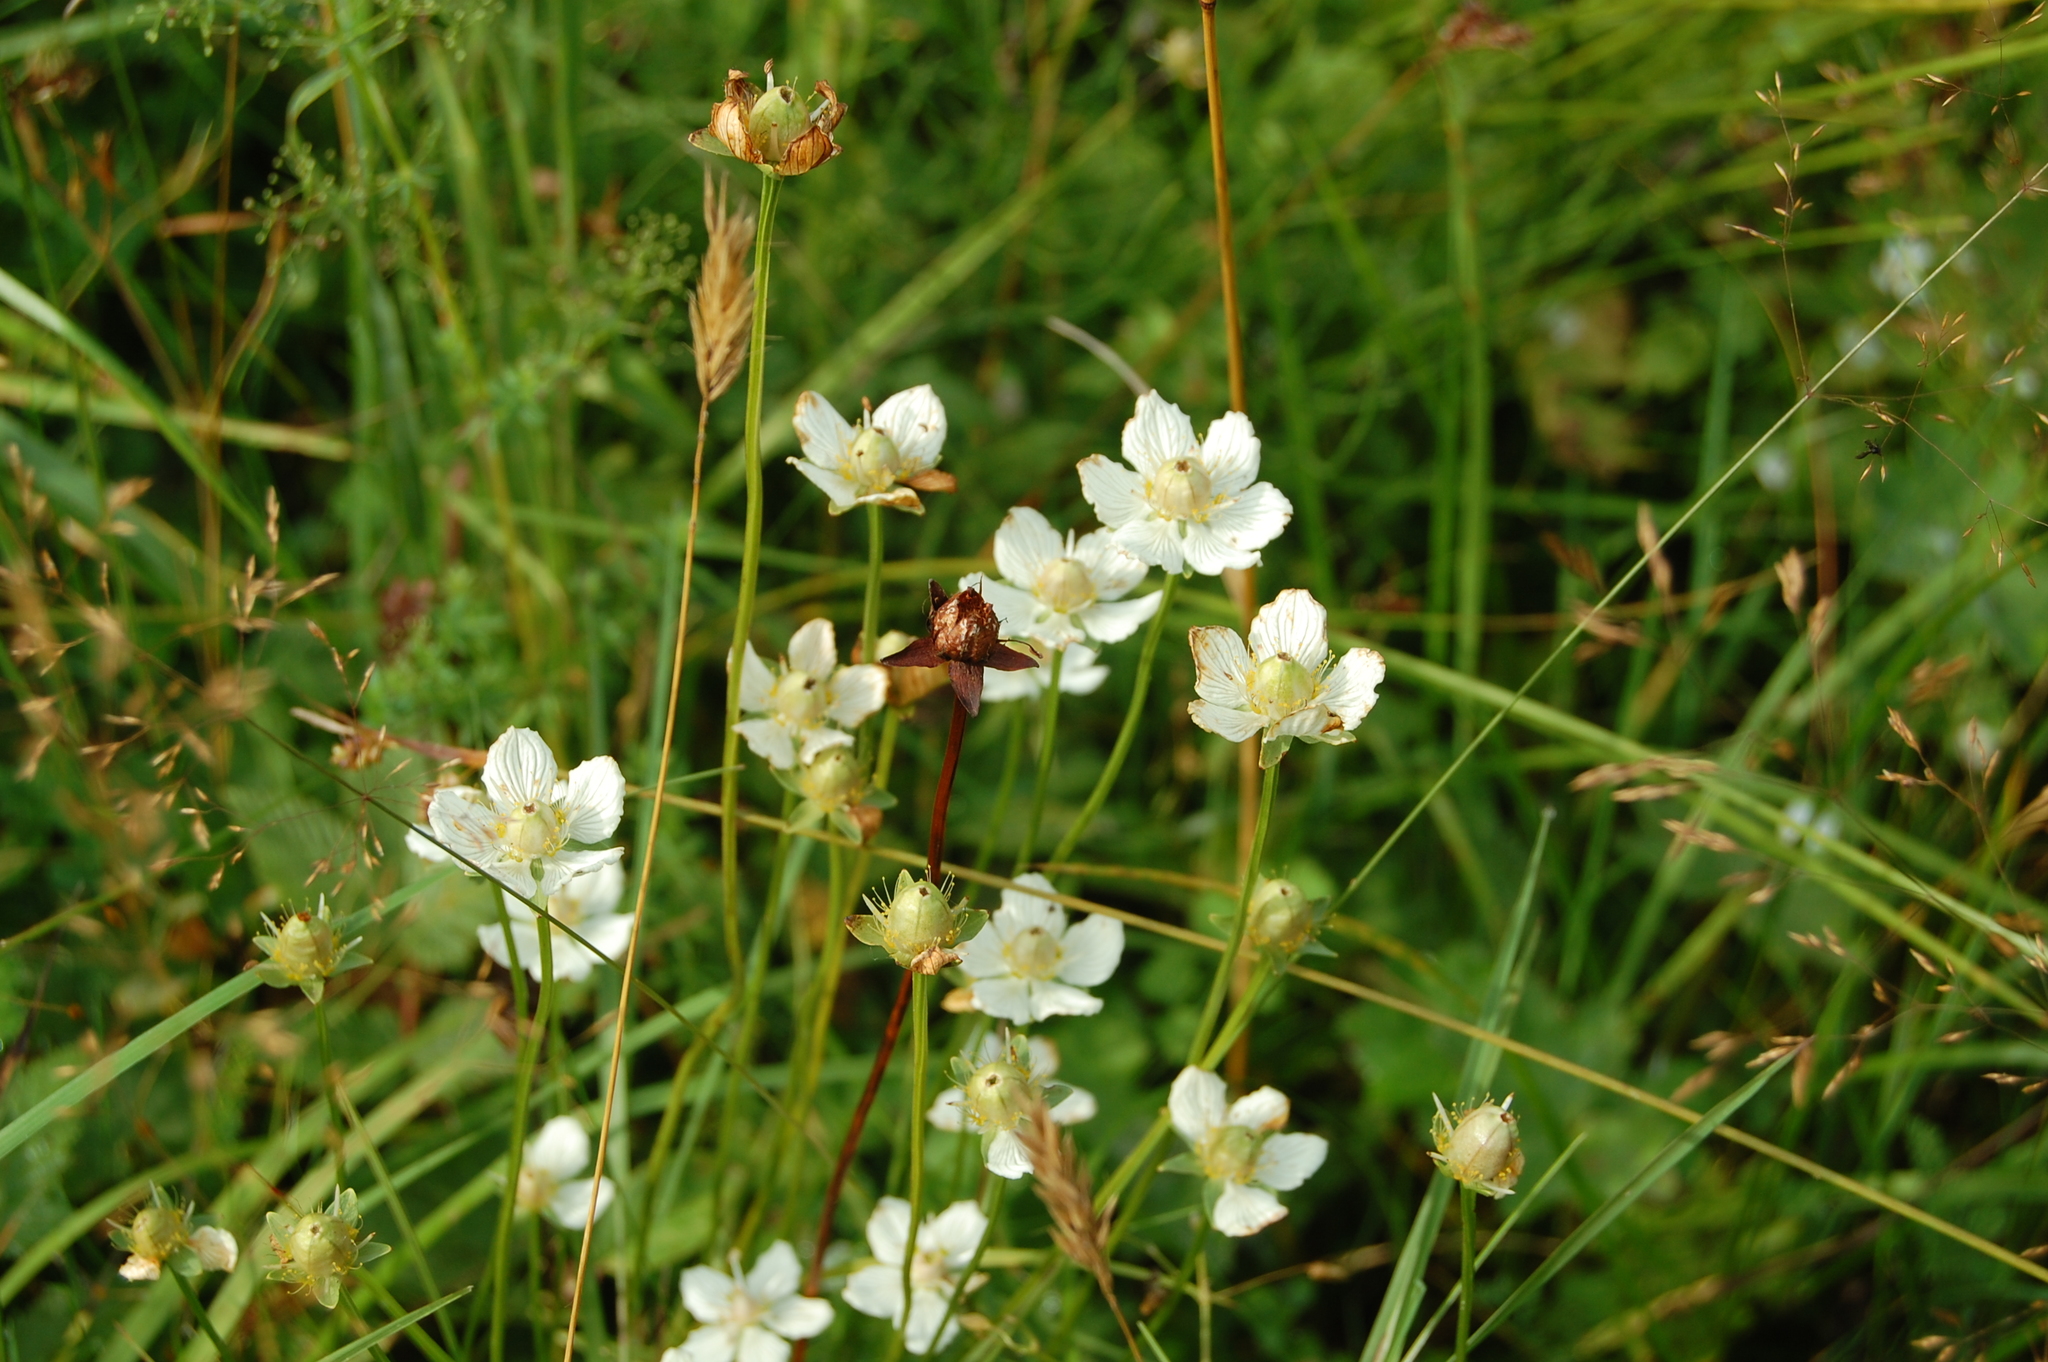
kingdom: Plantae
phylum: Tracheophyta
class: Magnoliopsida
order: Celastrales
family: Parnassiaceae
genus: Parnassia
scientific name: Parnassia palustris
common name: Grass-of-parnassus
